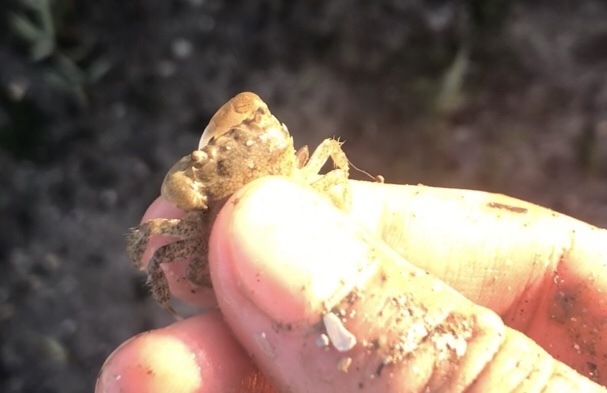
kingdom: Animalia
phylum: Arthropoda
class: Malacostraca
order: Decapoda
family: Varunidae
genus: Hemigrapsus
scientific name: Hemigrapsus oregonensis
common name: Yellow shore crab
